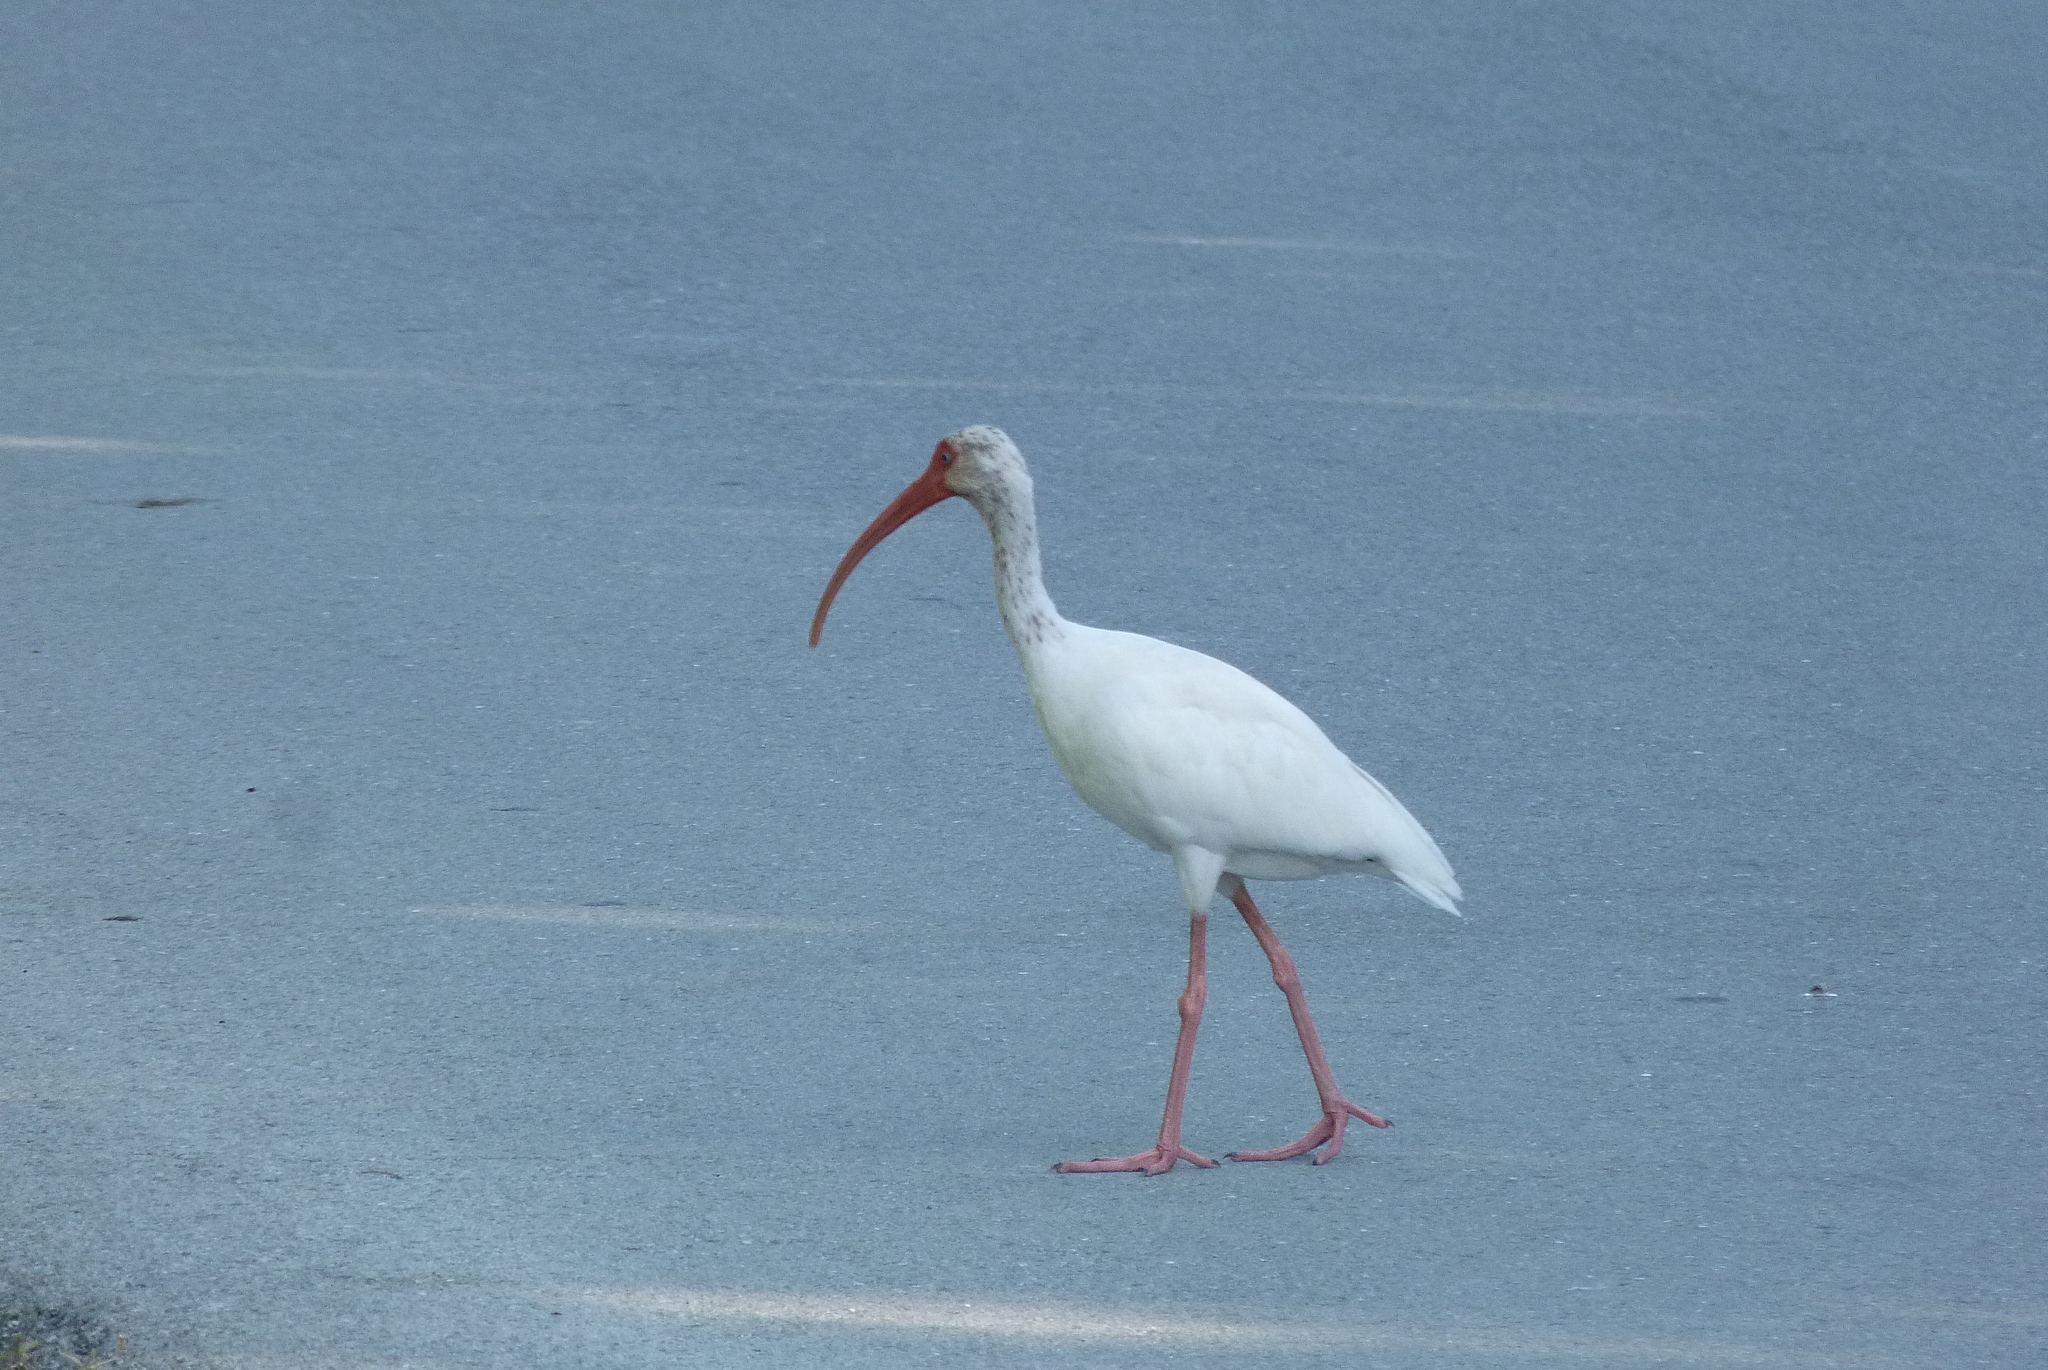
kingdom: Animalia
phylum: Chordata
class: Aves
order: Pelecaniformes
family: Threskiornithidae
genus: Eudocimus
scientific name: Eudocimus albus
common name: White ibis
